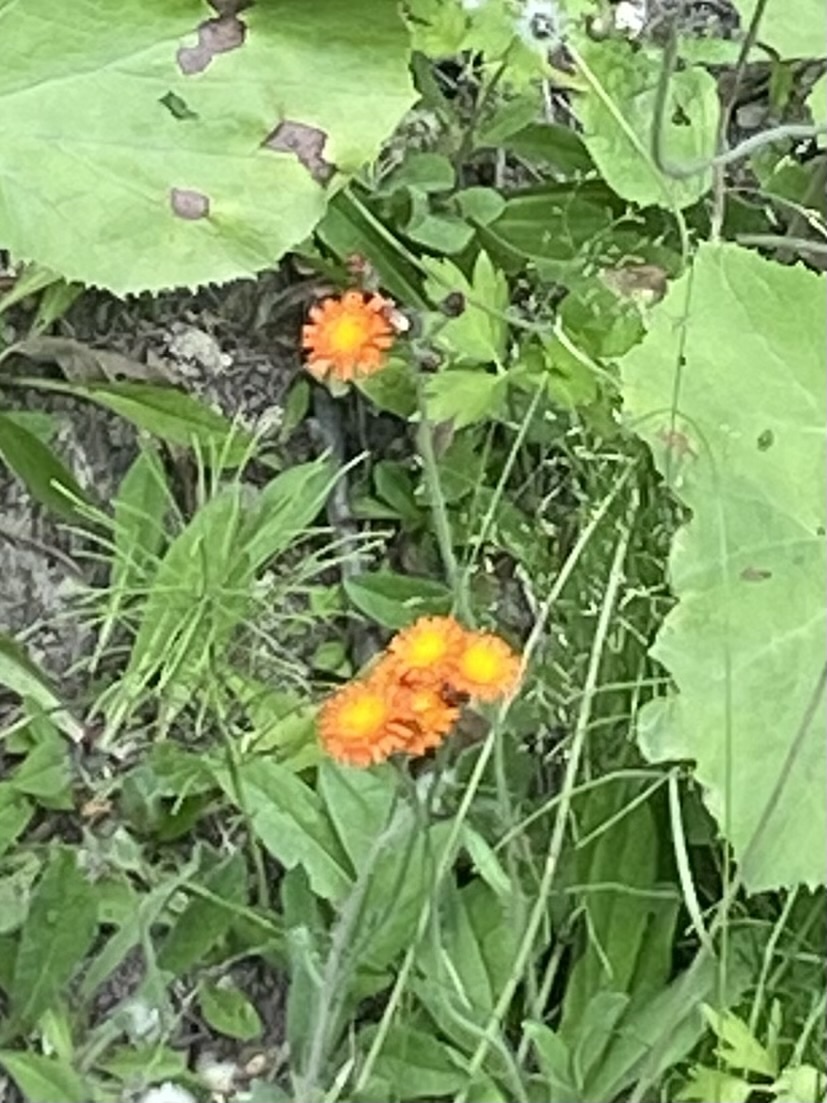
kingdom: Plantae
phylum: Tracheophyta
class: Magnoliopsida
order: Asterales
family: Asteraceae
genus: Pilosella
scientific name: Pilosella aurantiaca
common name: Fox-and-cubs
